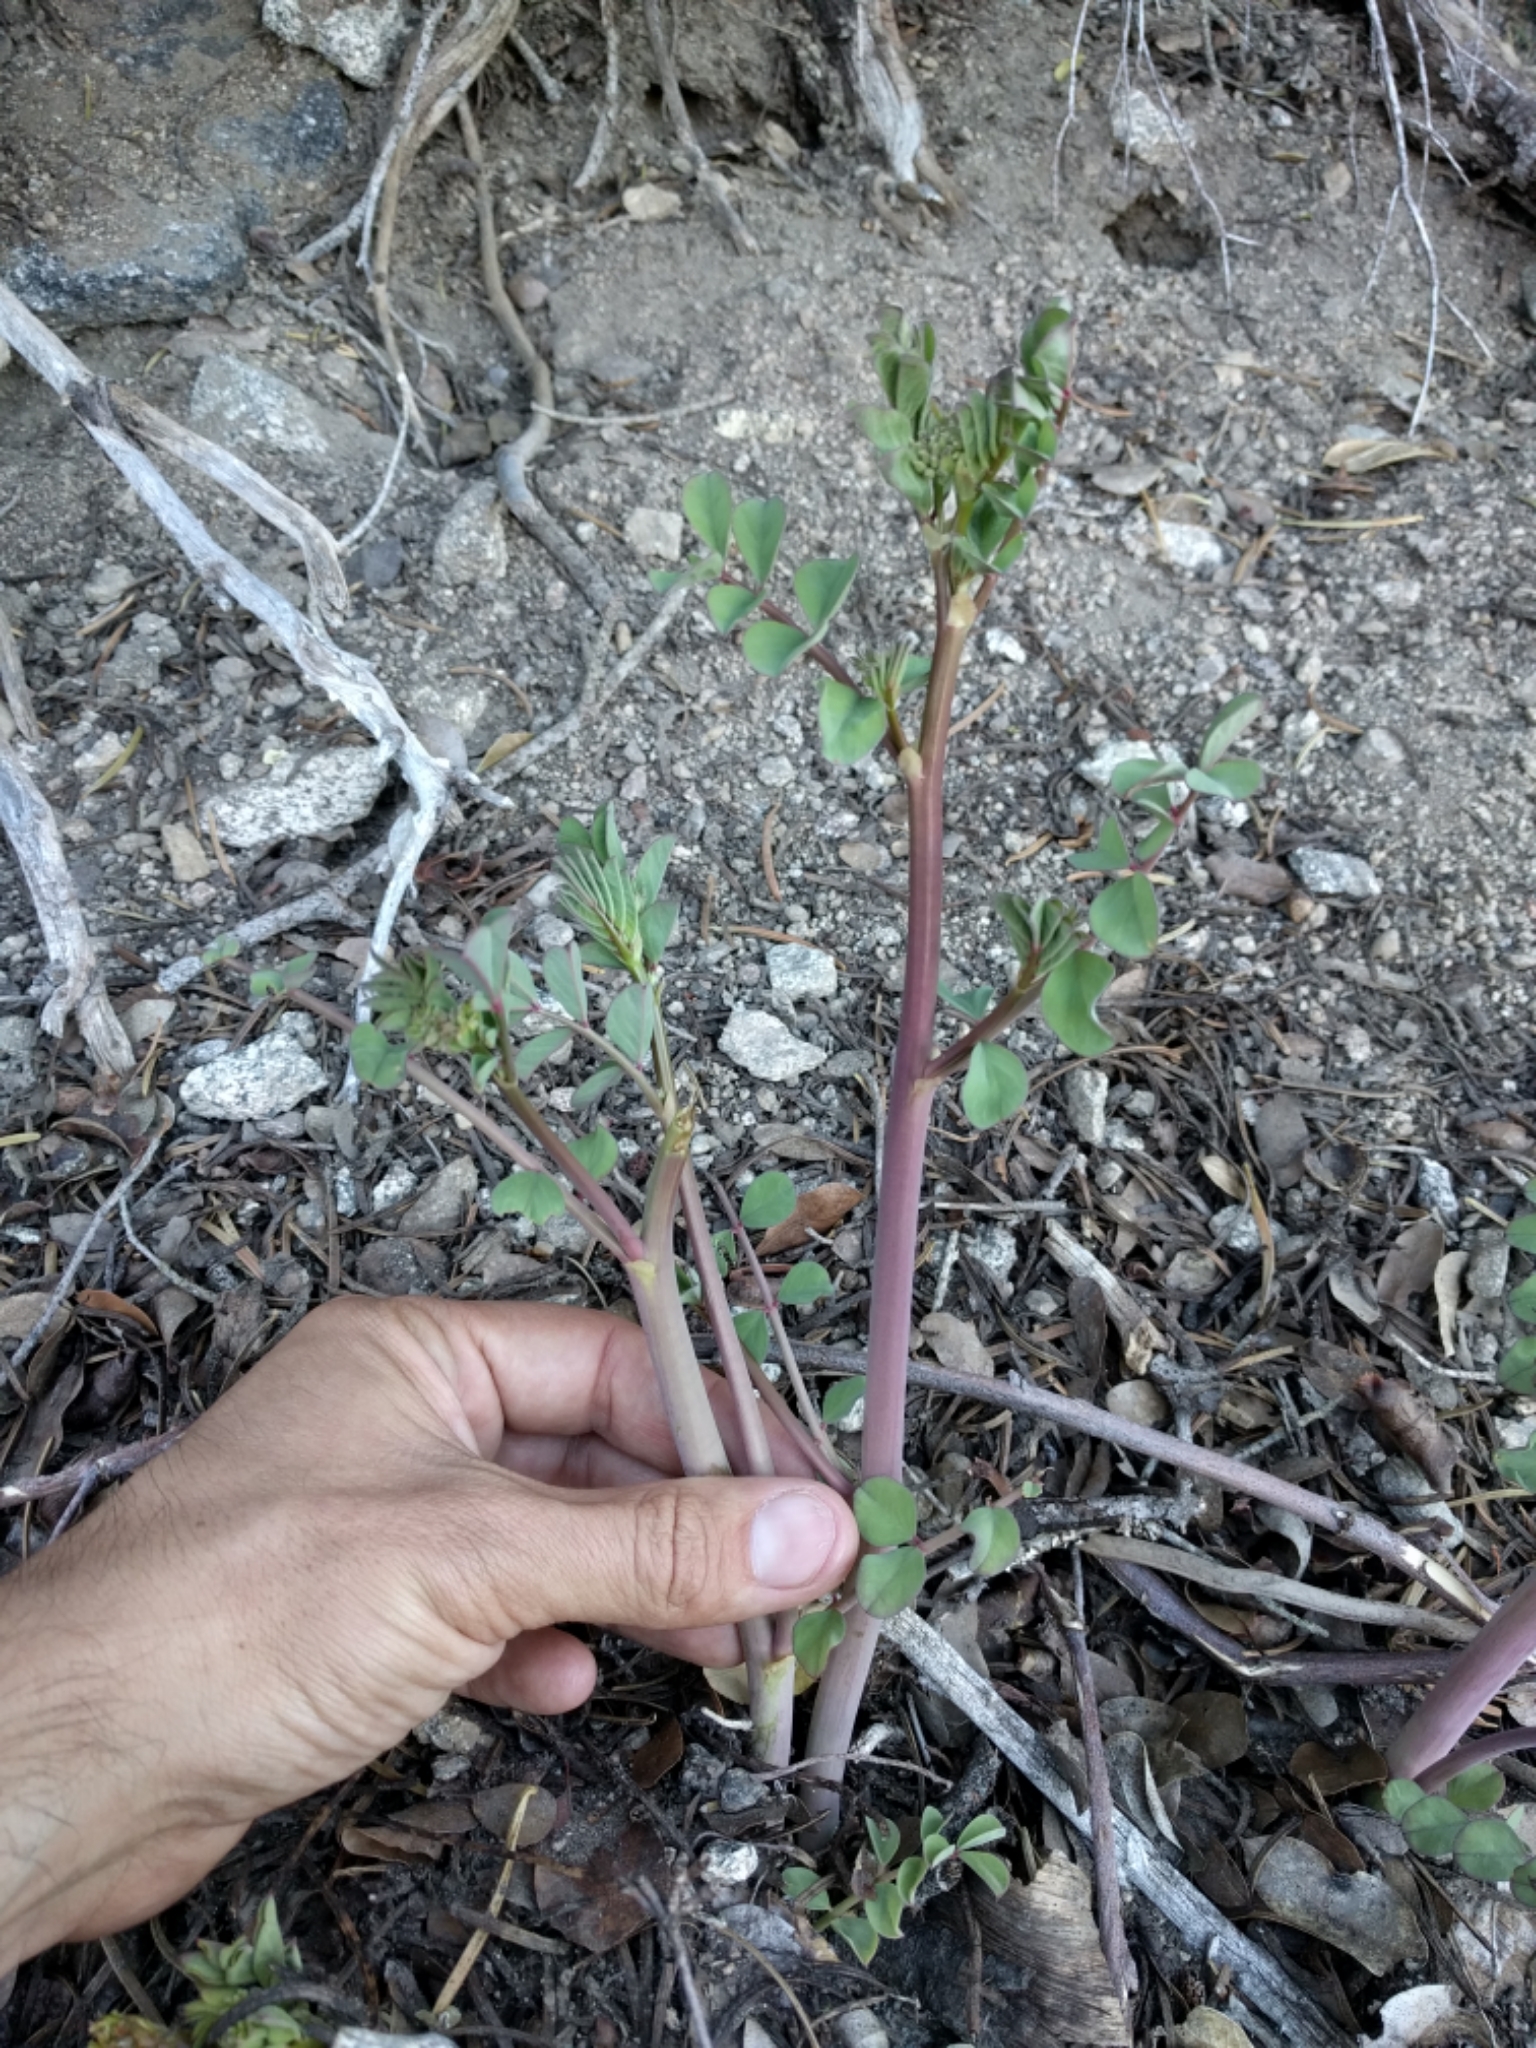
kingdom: Plantae
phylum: Tracheophyta
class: Magnoliopsida
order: Fabales
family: Fabaceae
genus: Hosackia
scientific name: Hosackia crassifolia
